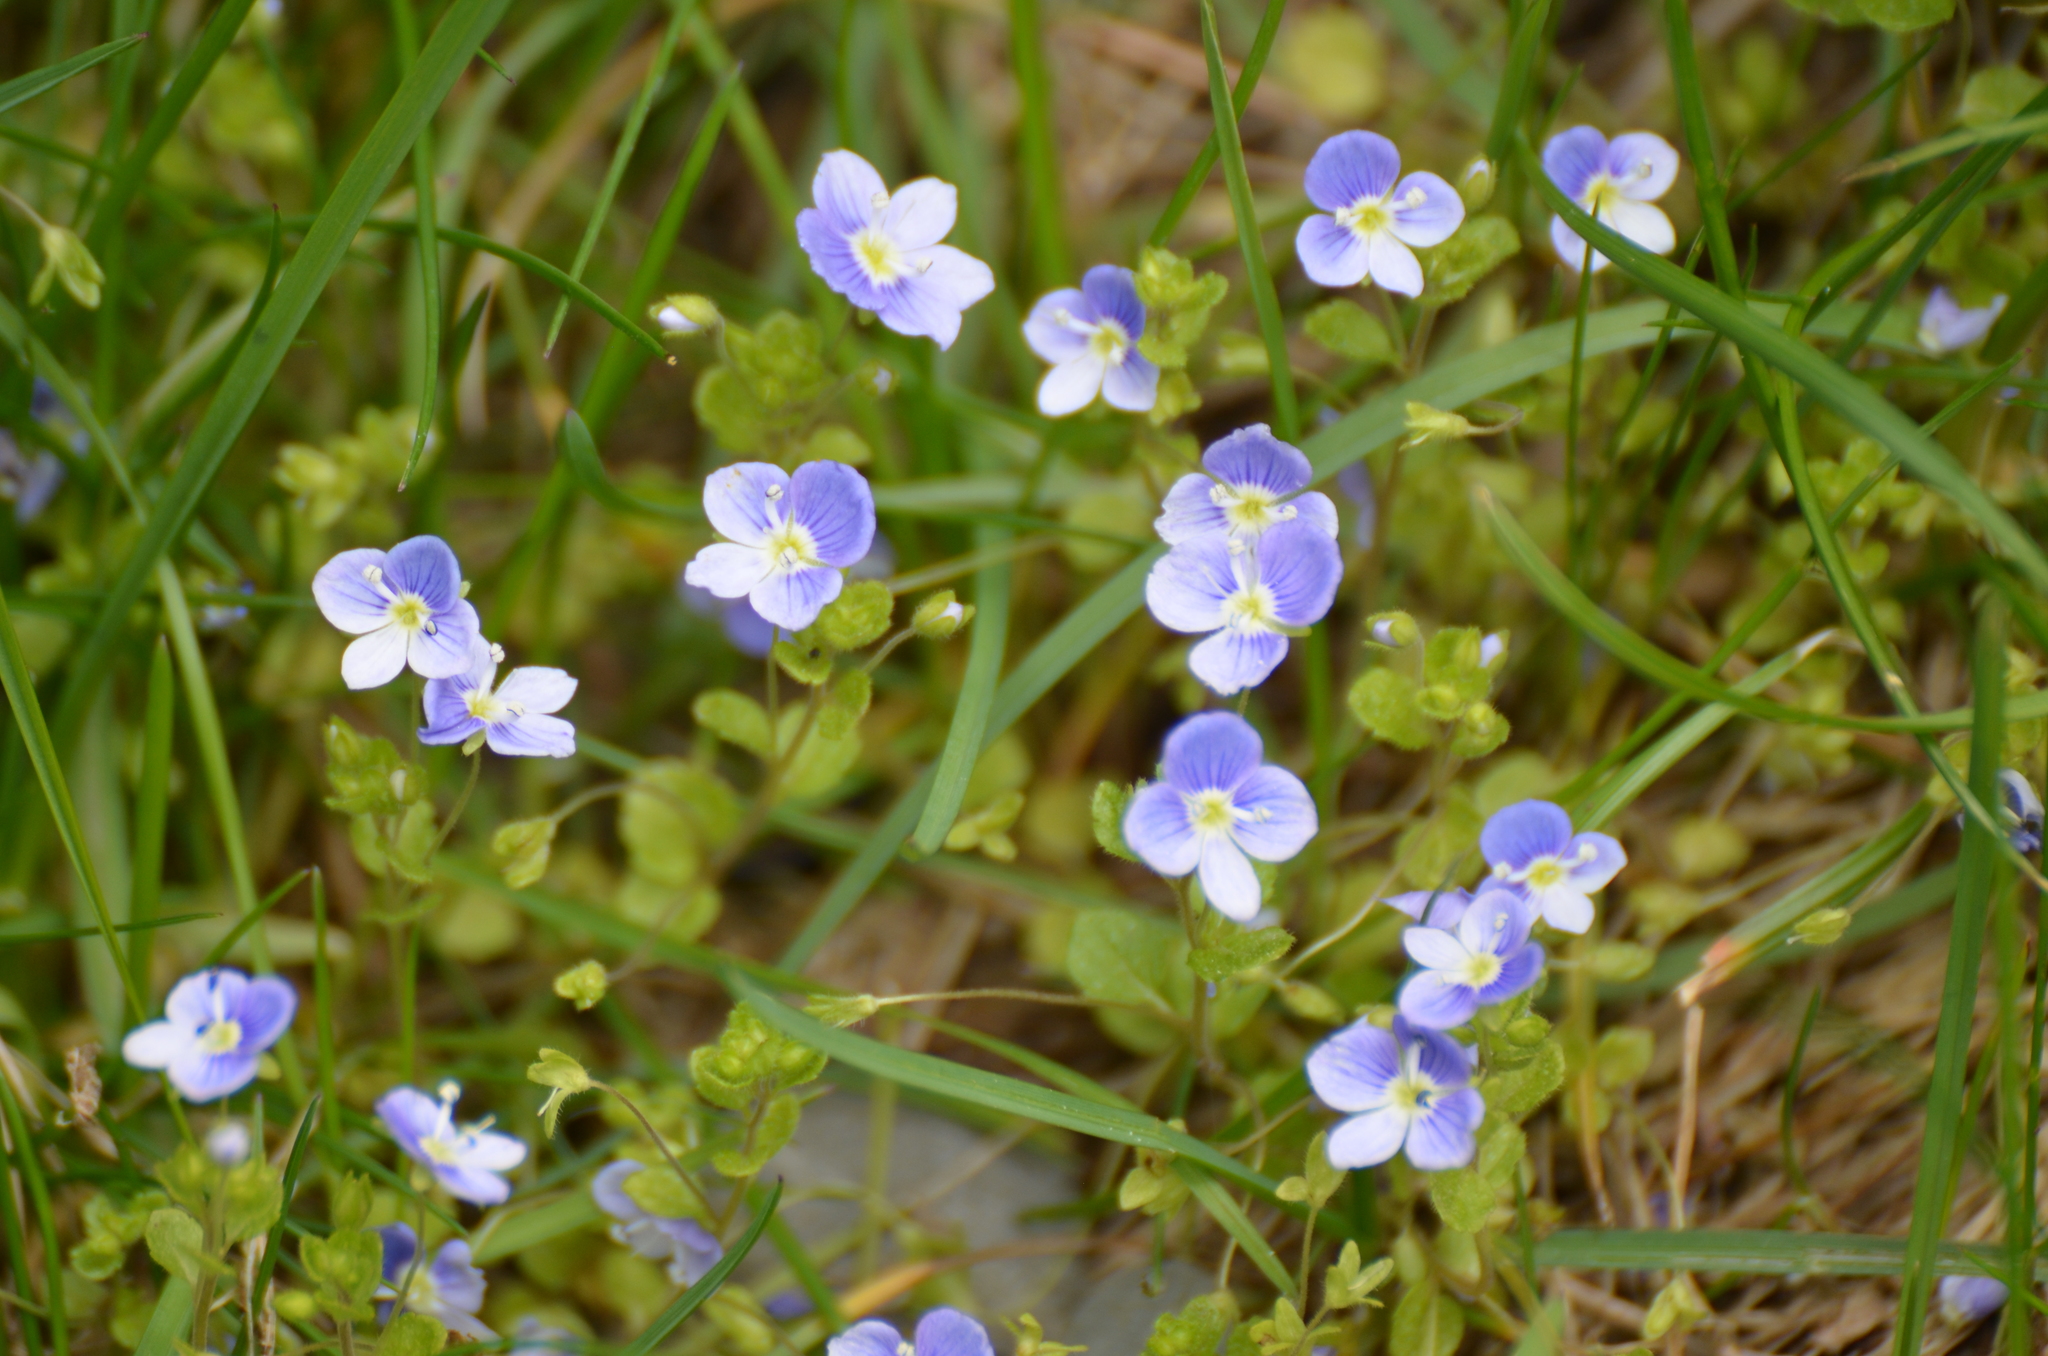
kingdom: Plantae
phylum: Tracheophyta
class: Magnoliopsida
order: Lamiales
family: Plantaginaceae
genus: Veronica
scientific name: Veronica filiformis
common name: Slender speedwell
